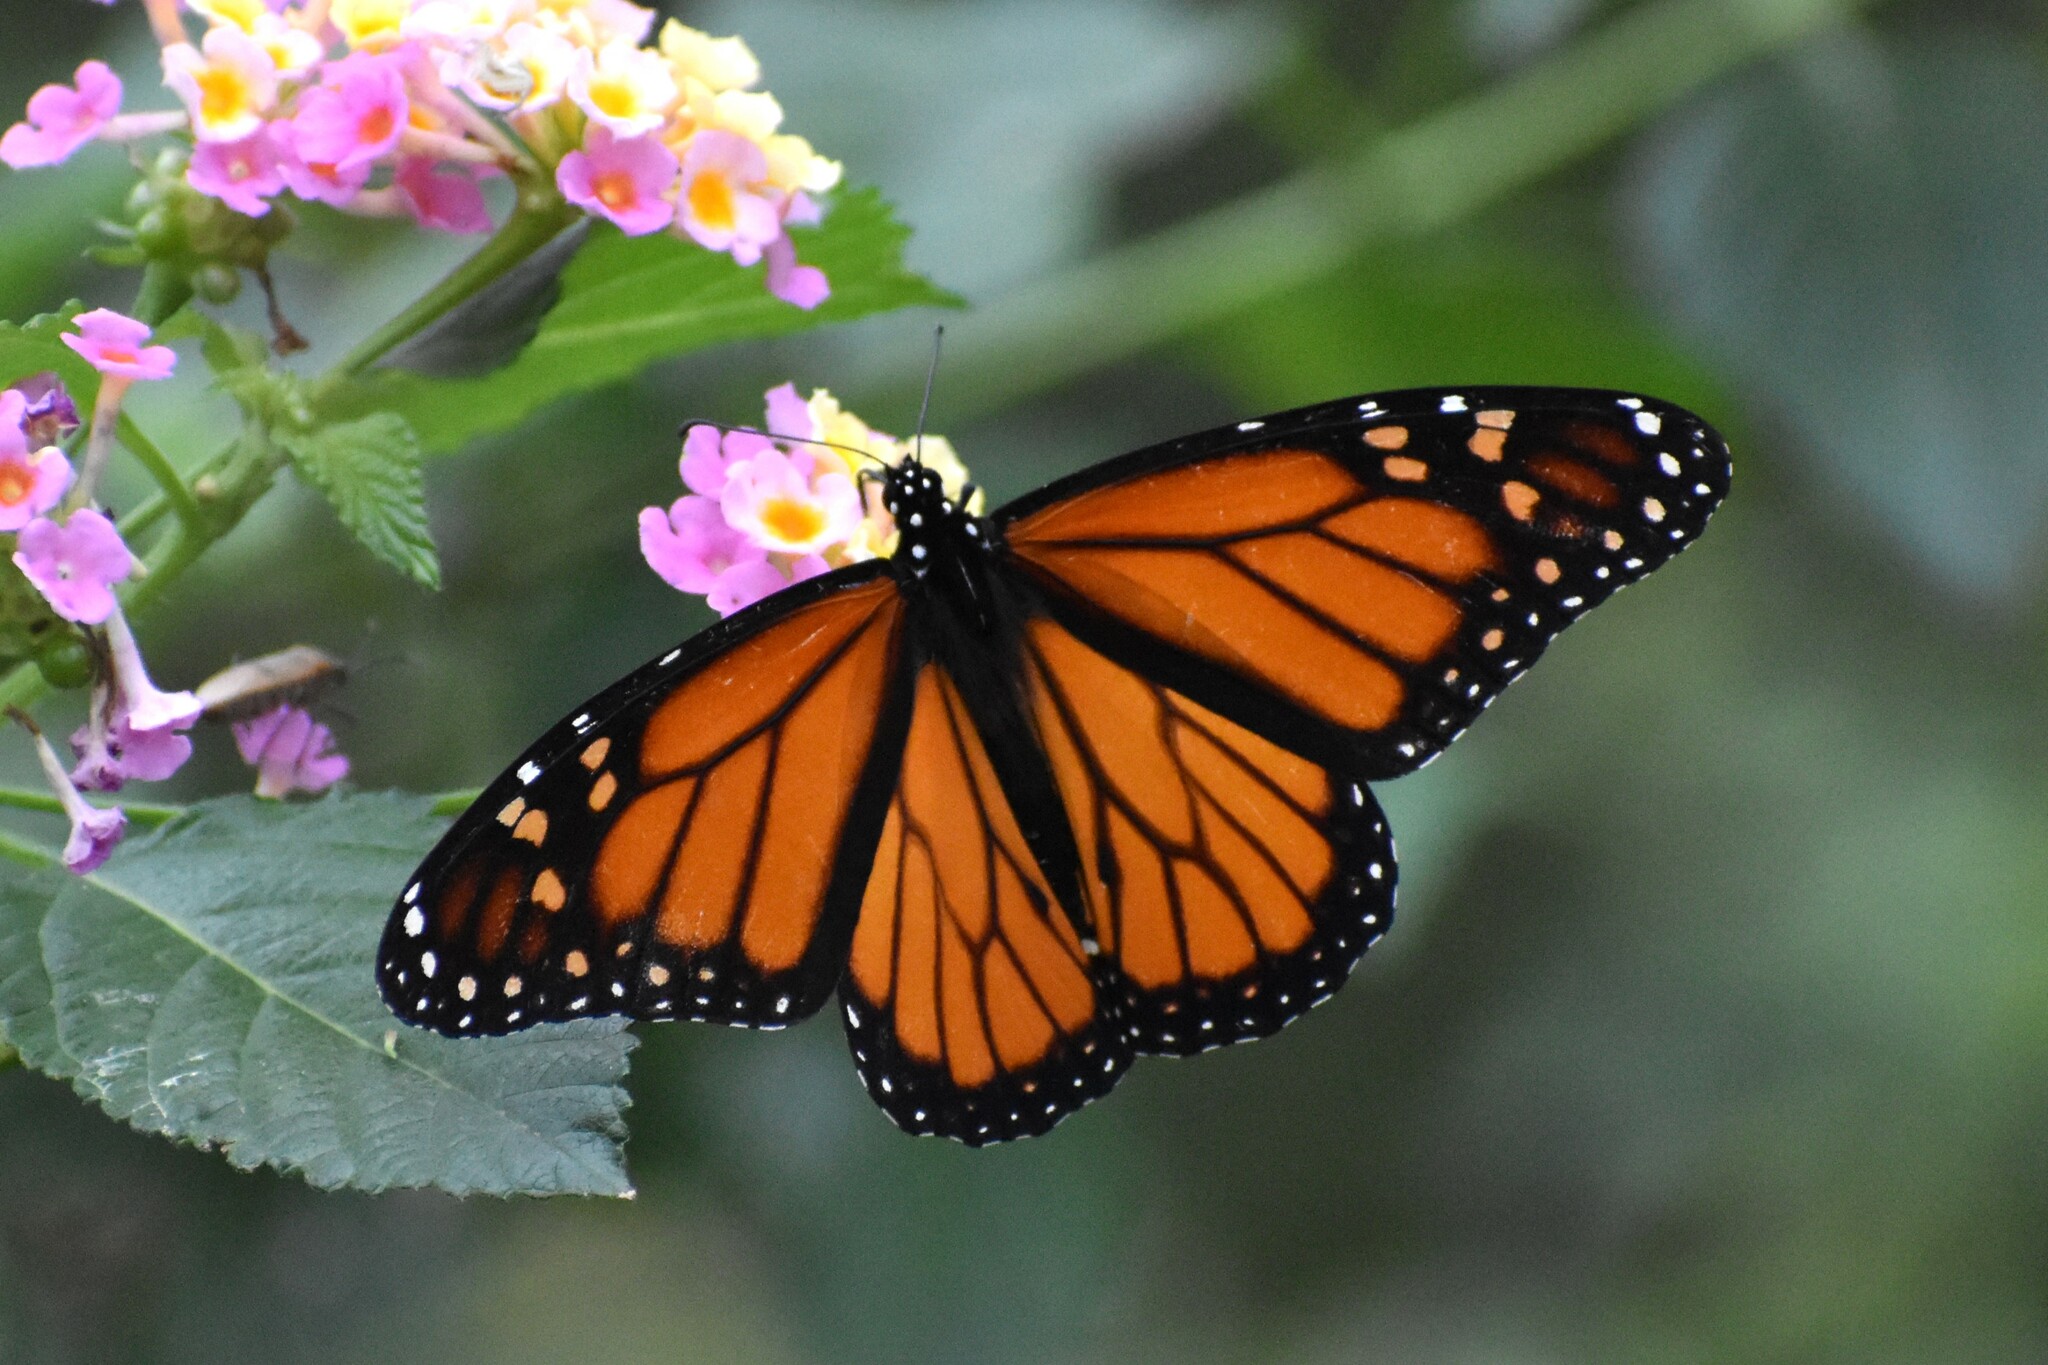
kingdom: Animalia
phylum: Arthropoda
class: Insecta
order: Lepidoptera
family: Nymphalidae
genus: Danaus
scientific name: Danaus plexippus
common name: Monarch
